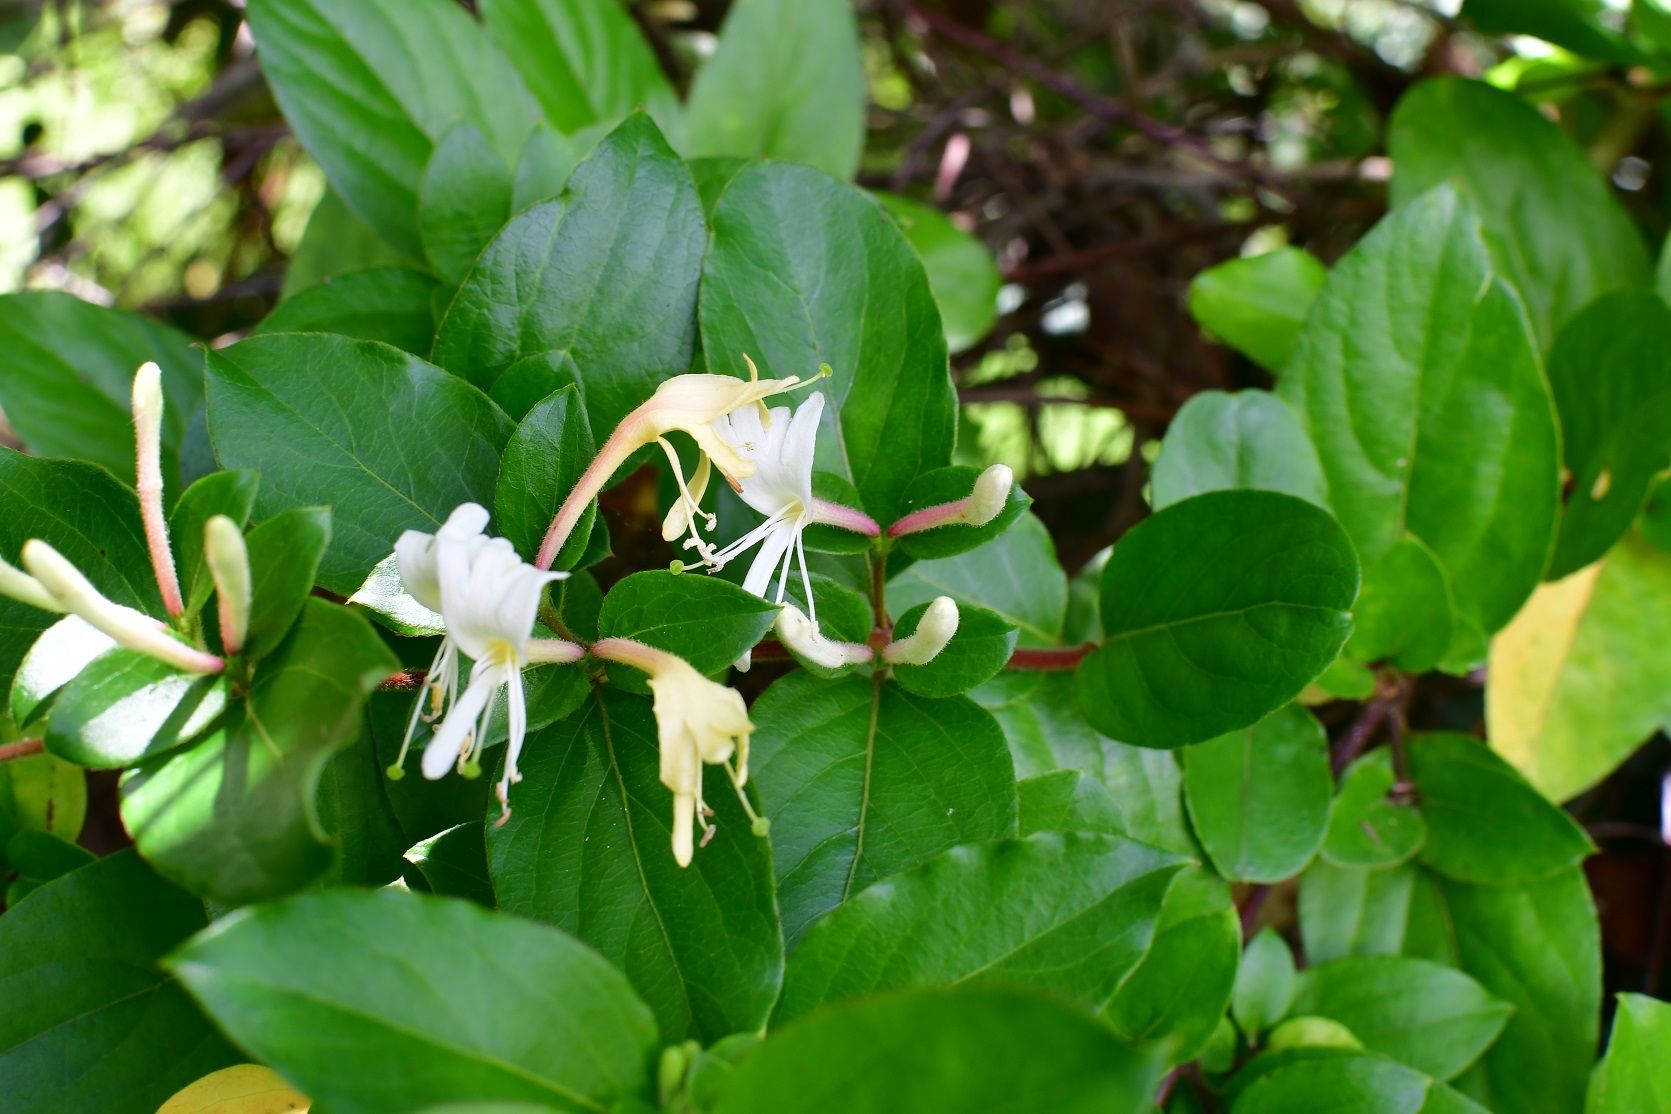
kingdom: Plantae
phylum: Tracheophyta
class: Magnoliopsida
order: Dipsacales
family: Caprifoliaceae
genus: Lonicera
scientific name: Lonicera japonica
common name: Japanese honeysuckle
